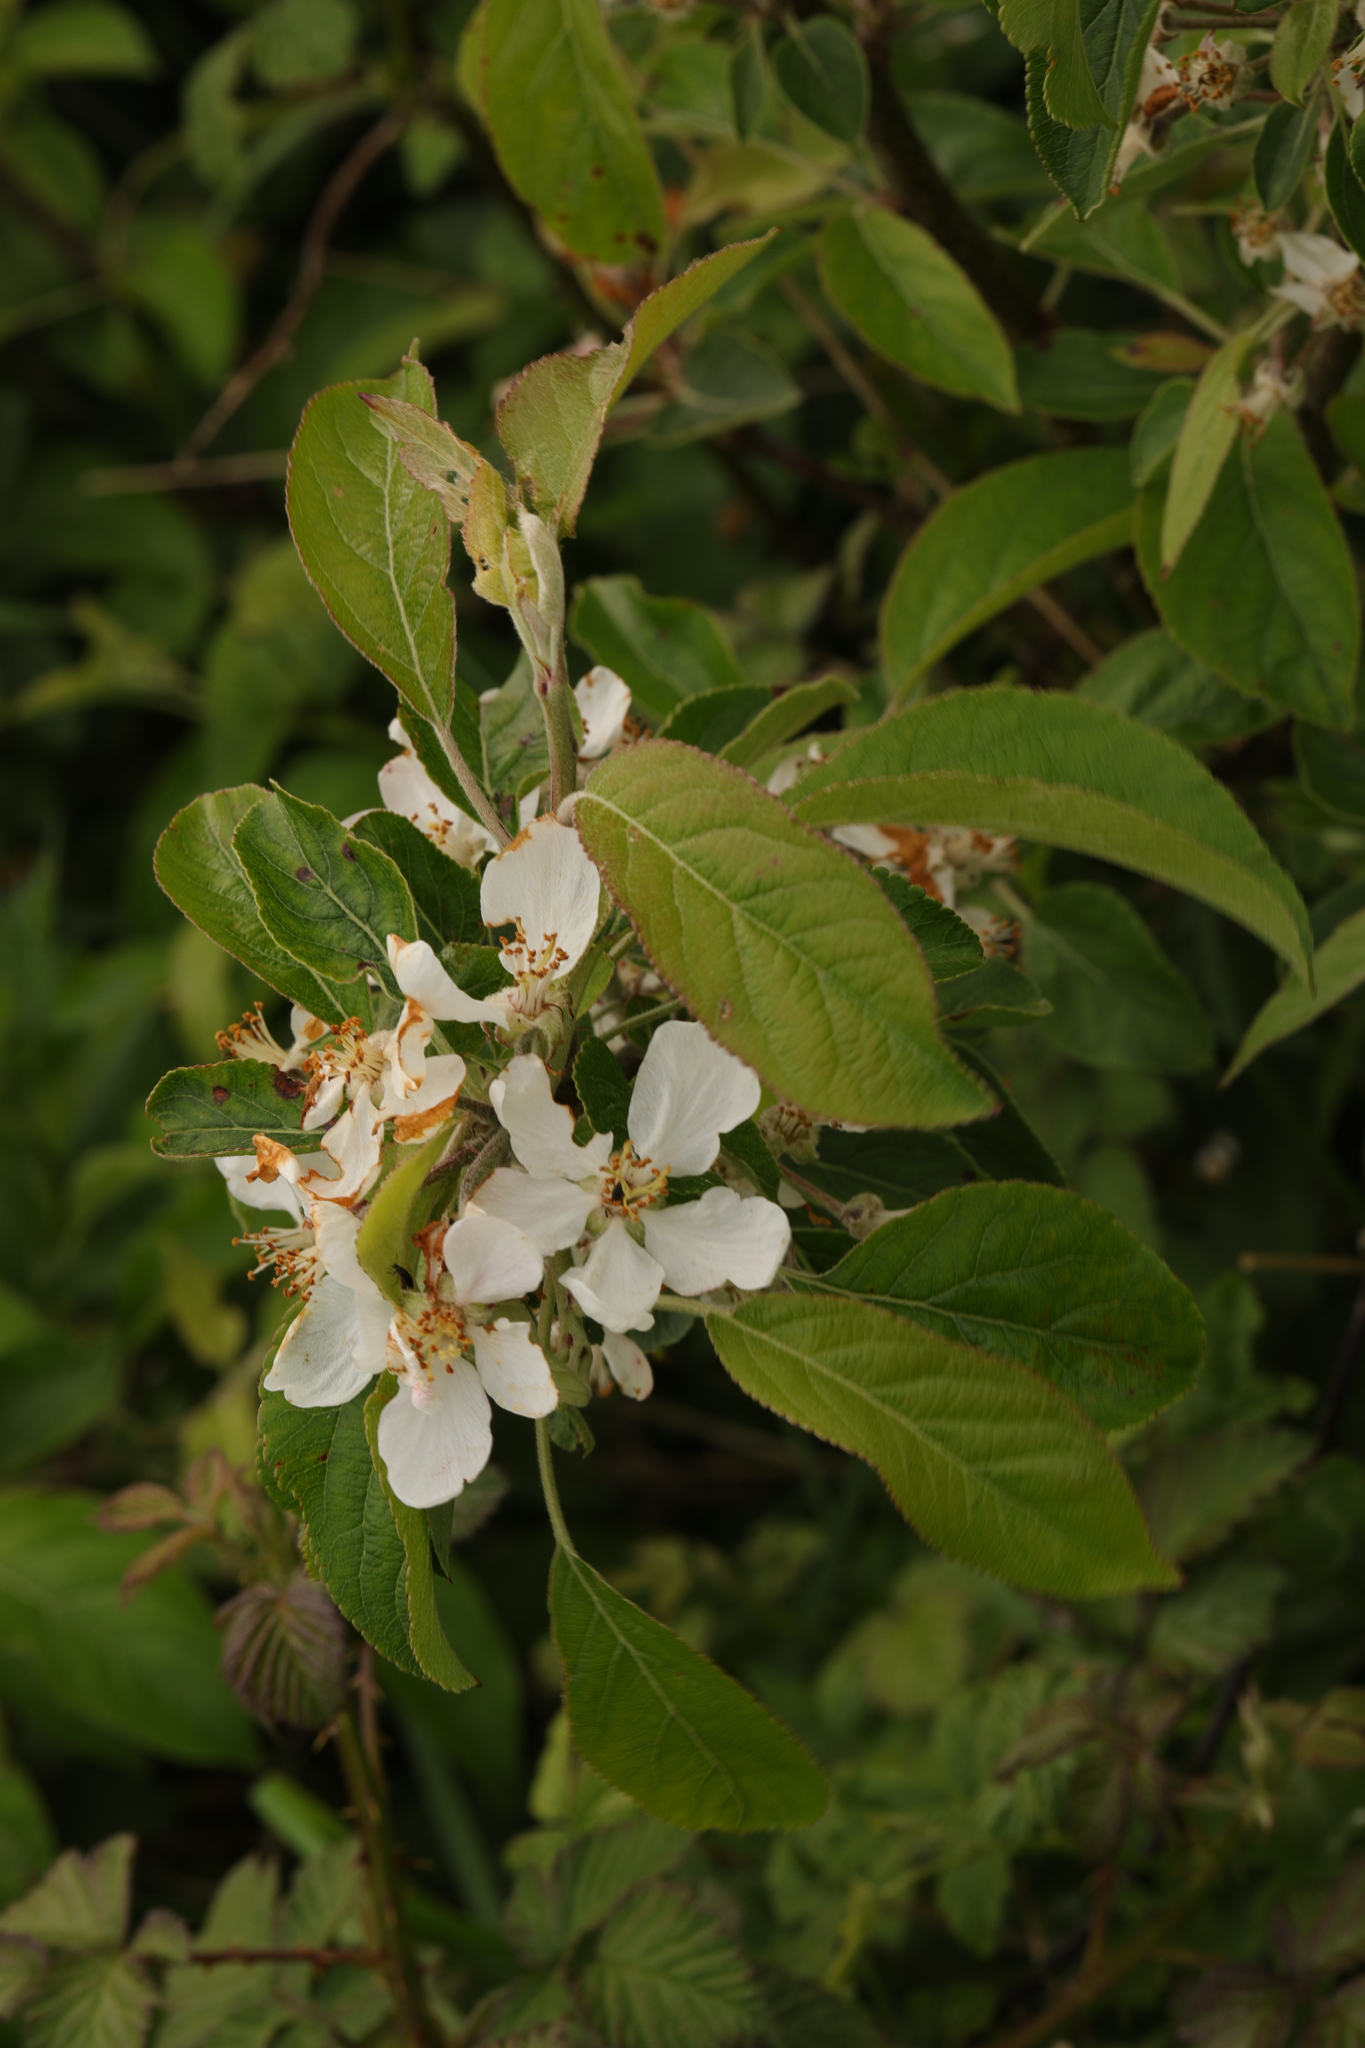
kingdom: Plantae
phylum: Tracheophyta
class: Magnoliopsida
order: Rosales
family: Rosaceae
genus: Malus
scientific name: Malus domestica
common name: Apple
